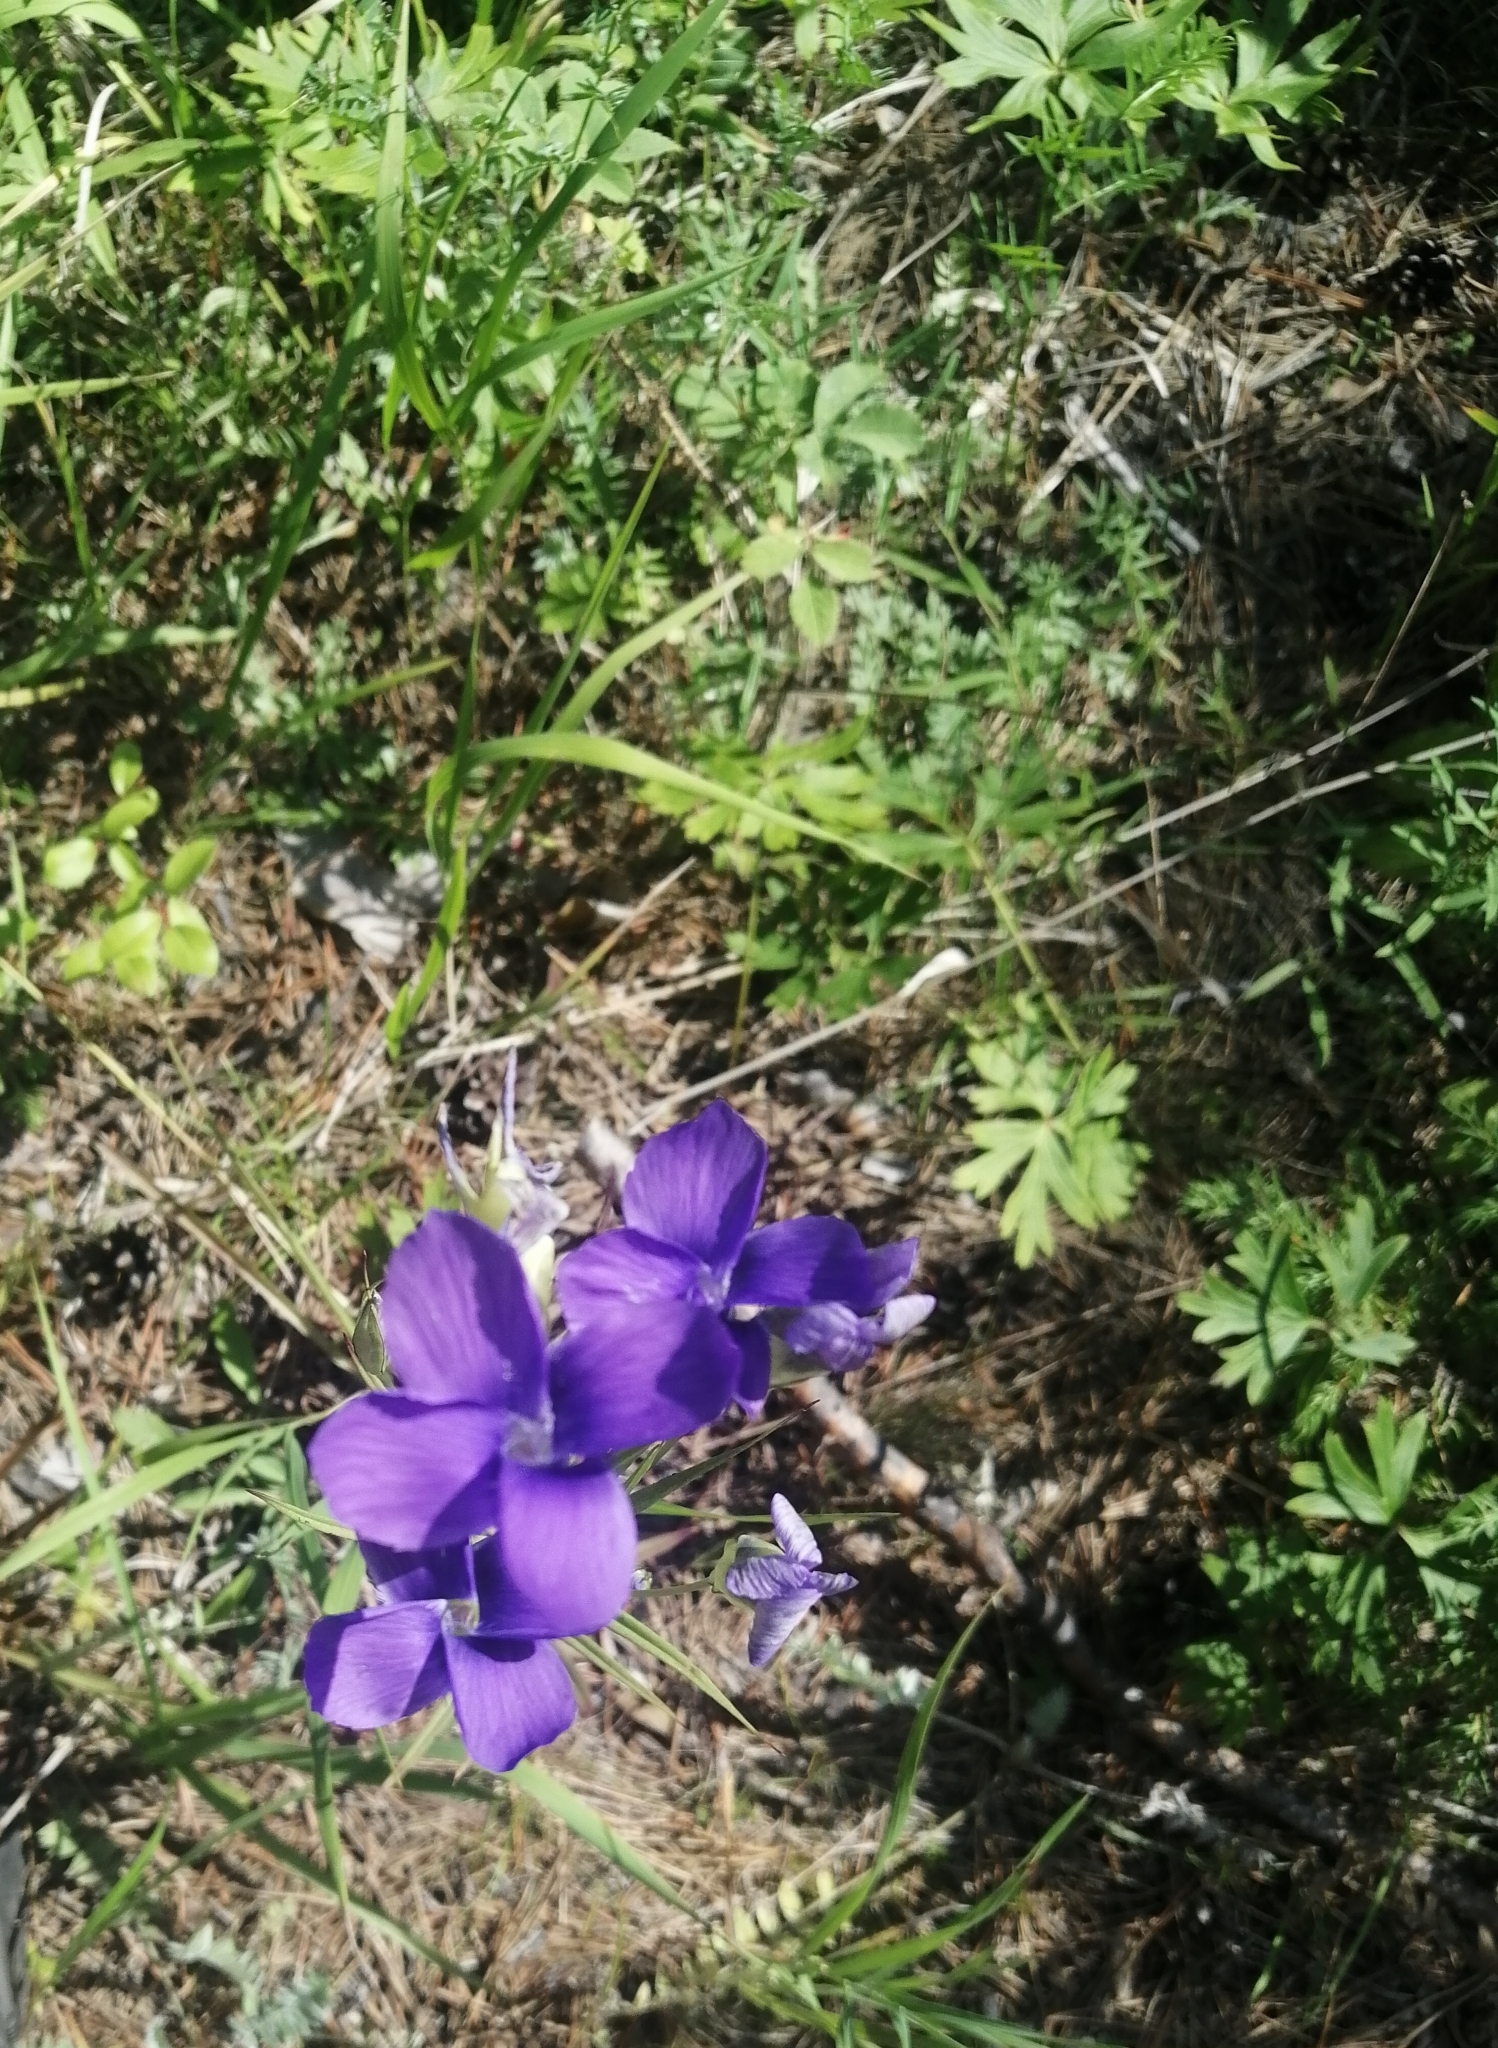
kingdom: Plantae
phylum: Tracheophyta
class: Magnoliopsida
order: Gentianales
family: Gentianaceae
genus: Gentianopsis
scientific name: Gentianopsis barbata
